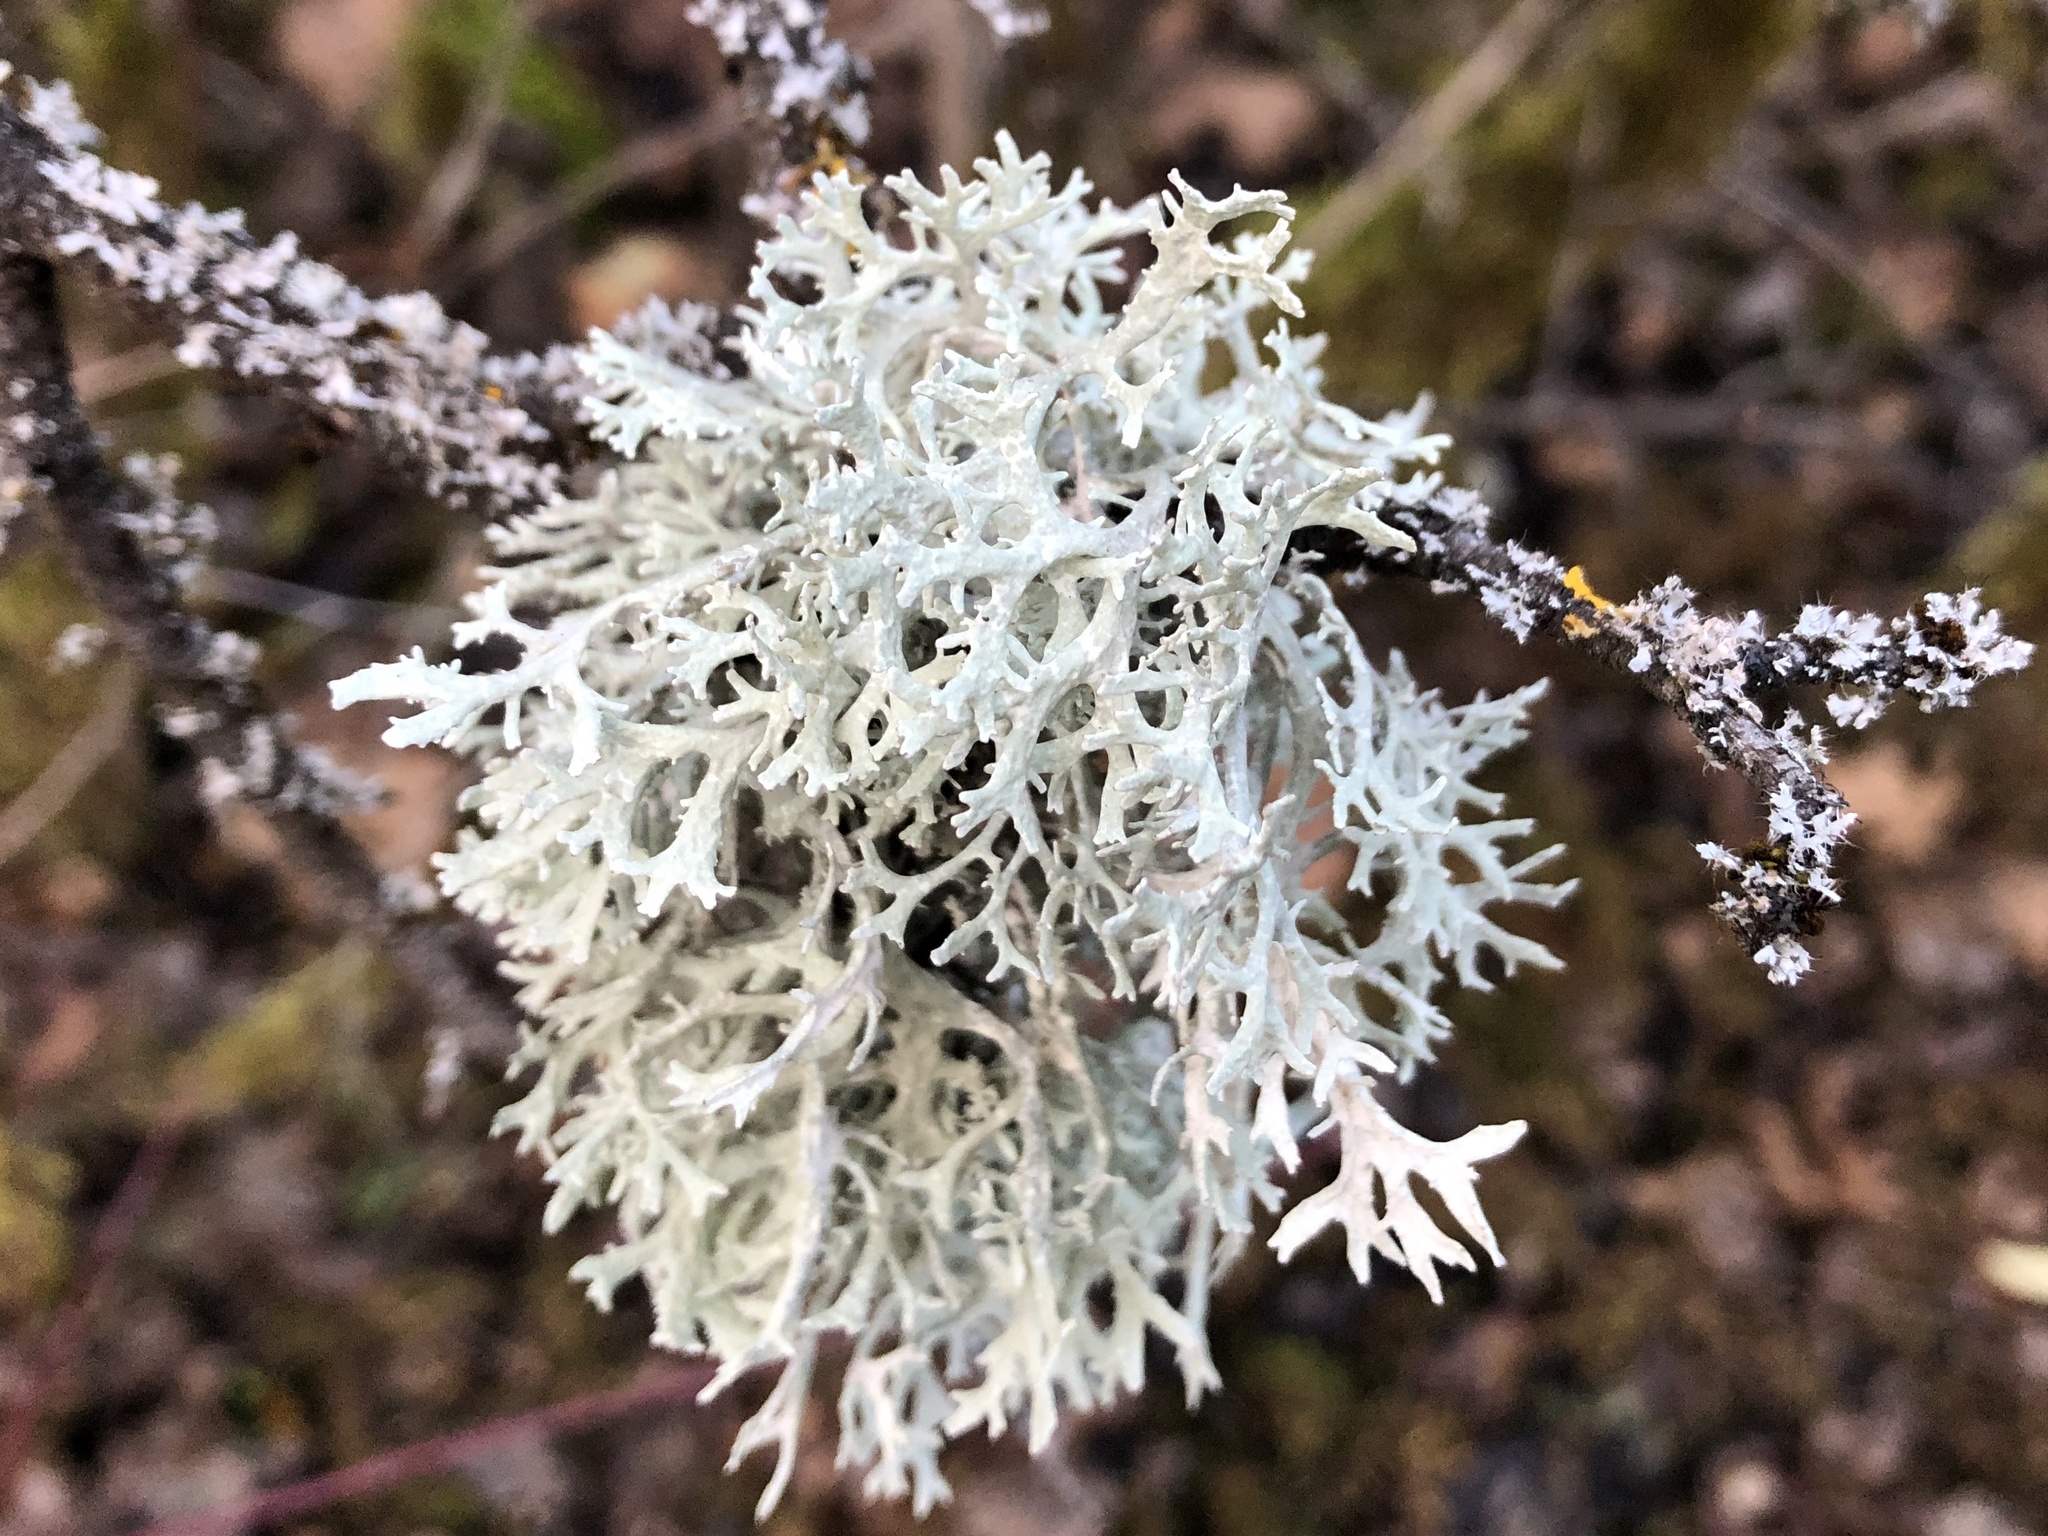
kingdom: Fungi
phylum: Ascomycota
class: Lecanoromycetes
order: Lecanorales
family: Parmeliaceae
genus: Evernia
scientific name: Evernia prunastri
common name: Oak moss
